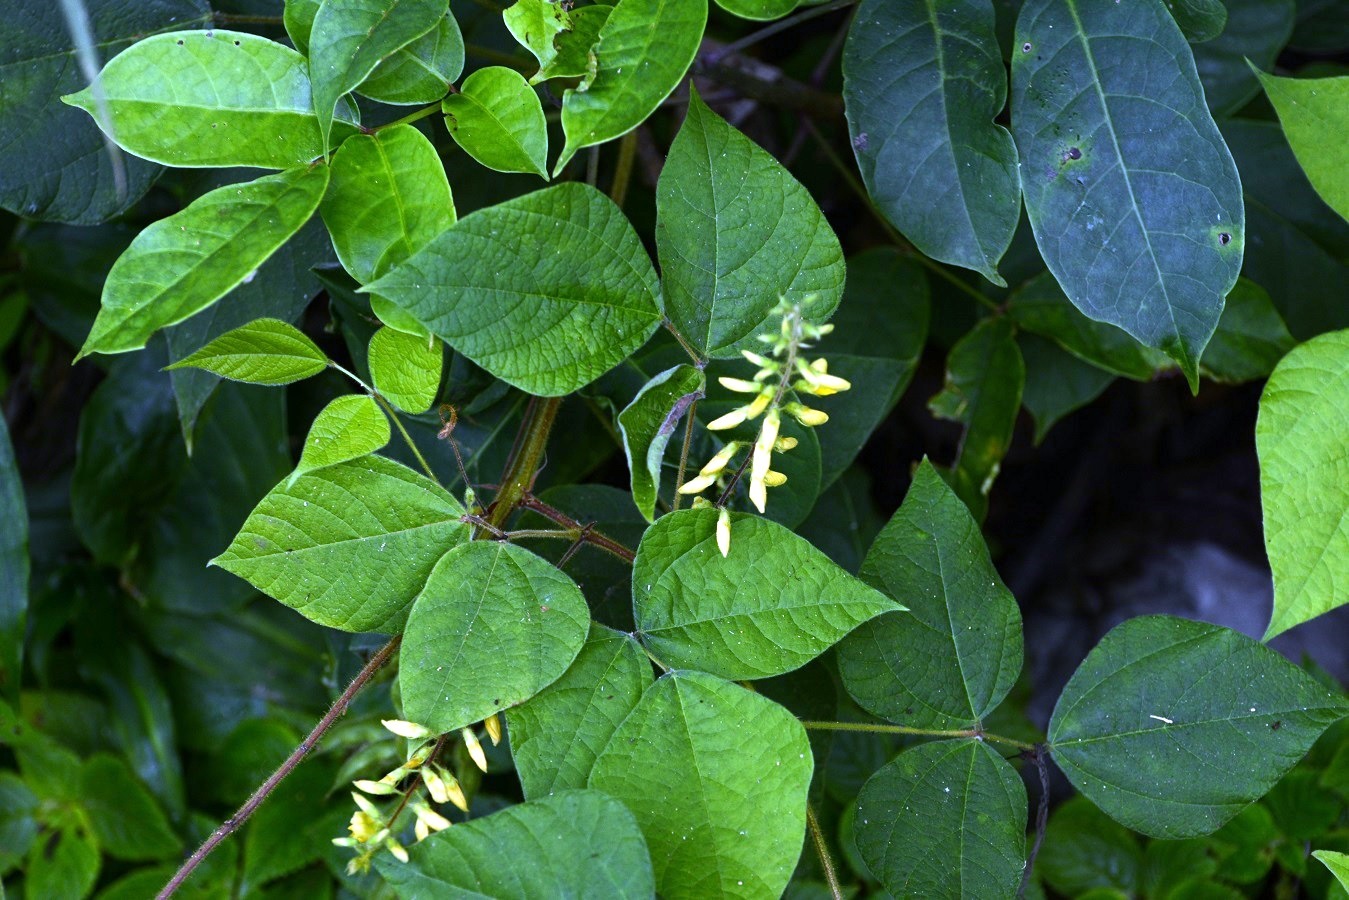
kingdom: Plantae
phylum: Tracheophyta
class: Magnoliopsida
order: Fabales
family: Fabaceae
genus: Rhynchosia
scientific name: Rhynchosia erythrinoides
